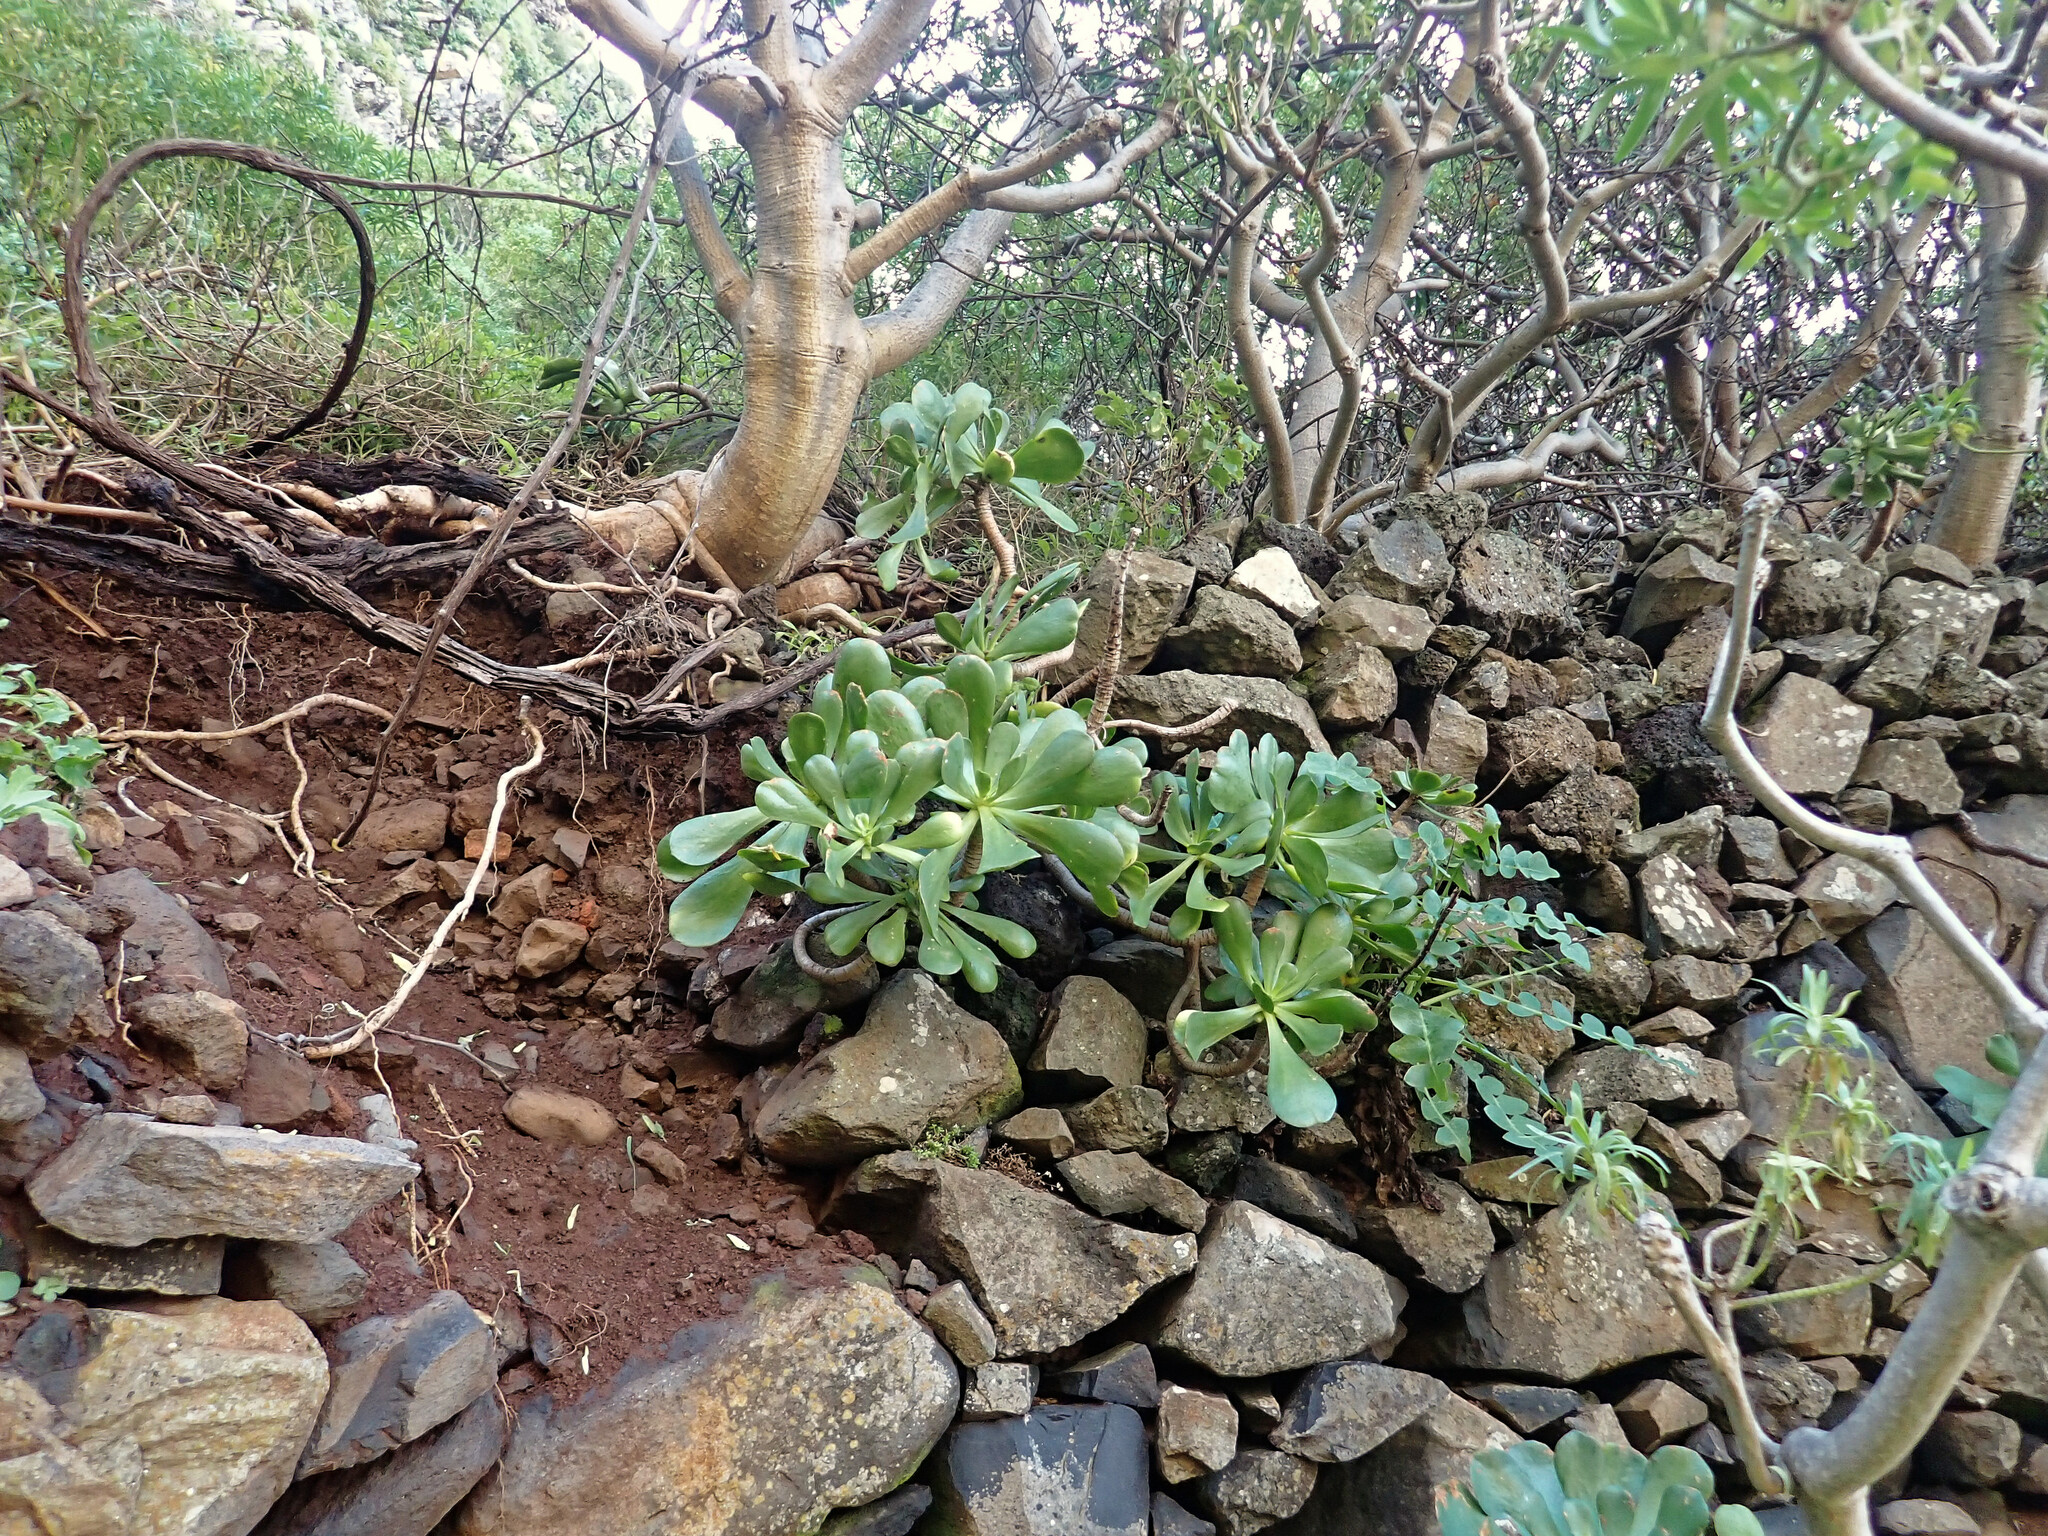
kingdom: Plantae
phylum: Tracheophyta
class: Magnoliopsida
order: Saxifragales
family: Crassulaceae
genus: Aeonium
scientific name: Aeonium glutinosum
